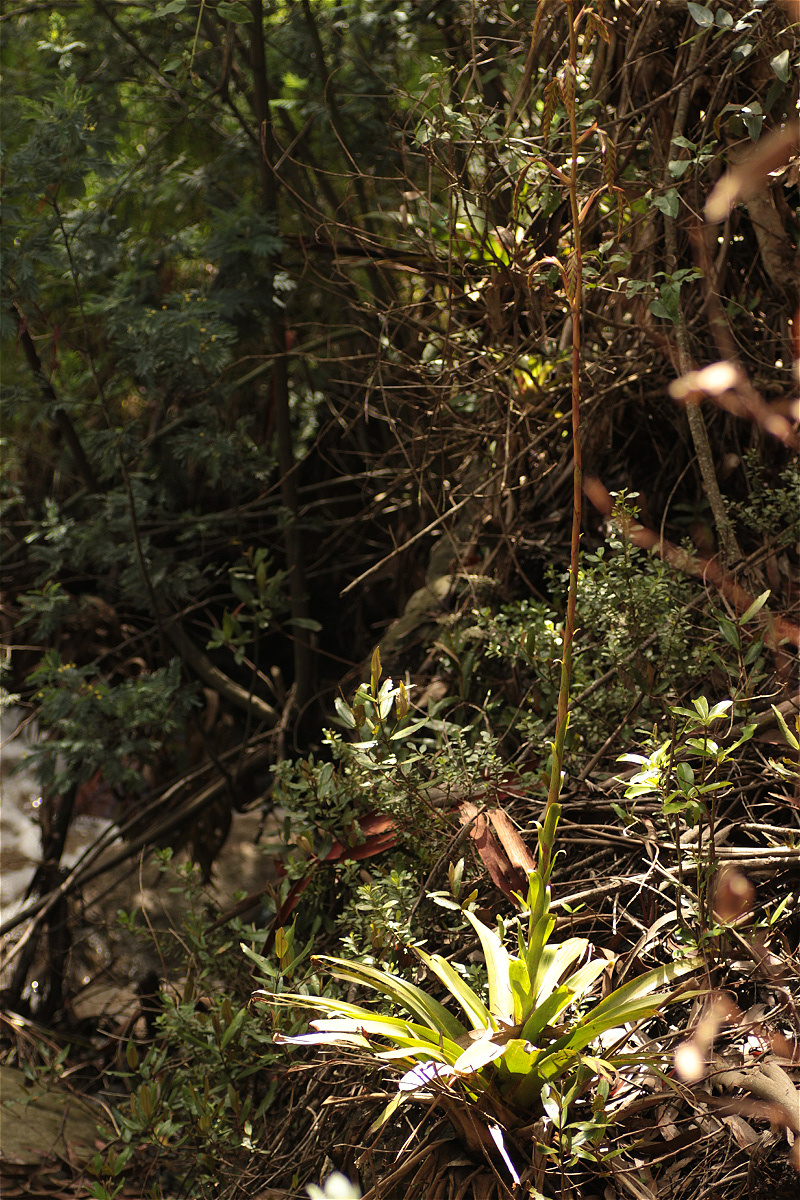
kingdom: Plantae
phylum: Tracheophyta
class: Liliopsida
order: Poales
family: Bromeliaceae
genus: Tillandsia
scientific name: Tillandsia denudata
